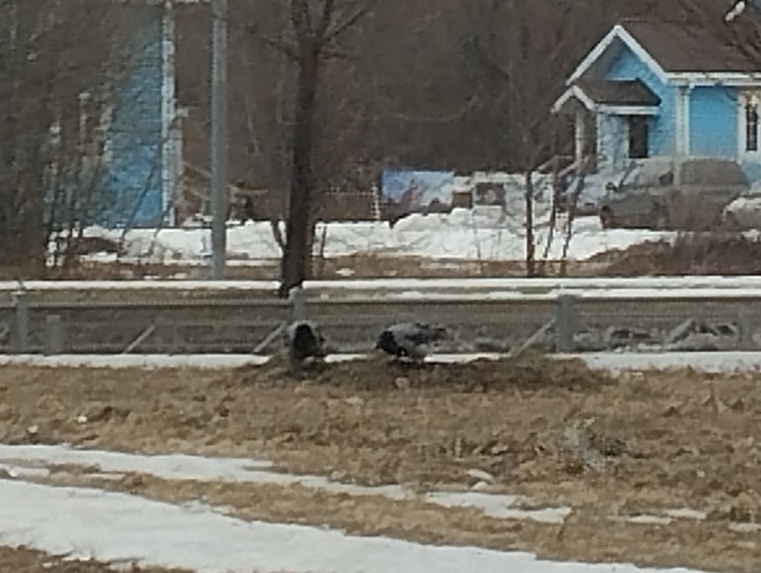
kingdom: Animalia
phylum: Chordata
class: Aves
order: Passeriformes
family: Corvidae
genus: Corvus
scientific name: Corvus cornix
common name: Hooded crow
